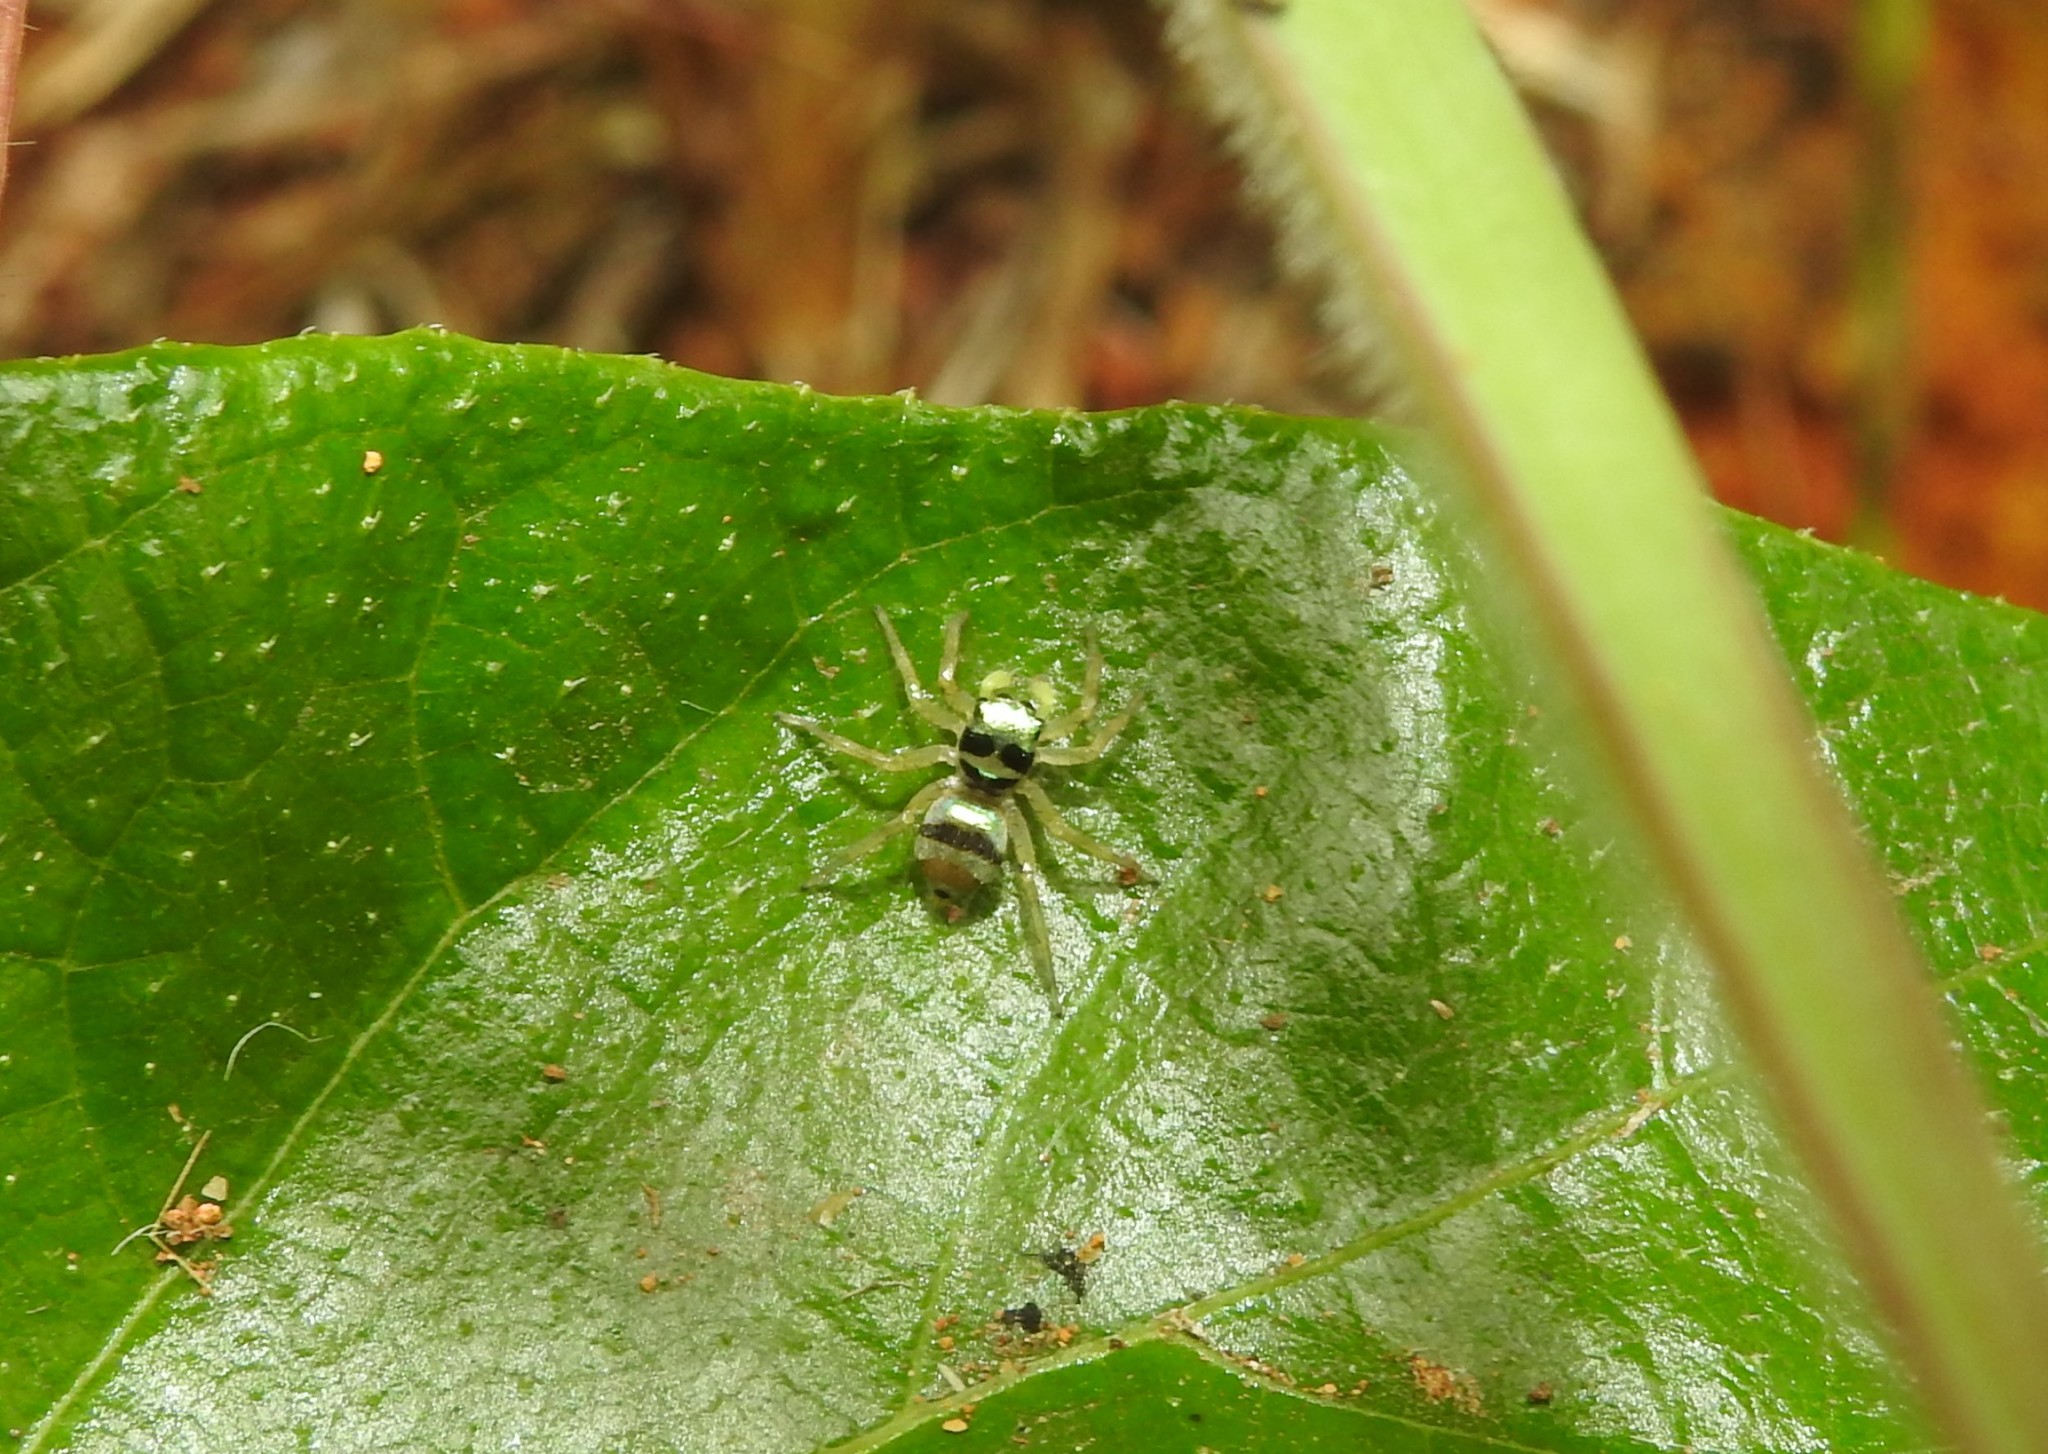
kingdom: Animalia
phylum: Arthropoda
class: Arachnida
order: Araneae
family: Salticidae
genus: Phintella
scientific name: Phintella vittata
